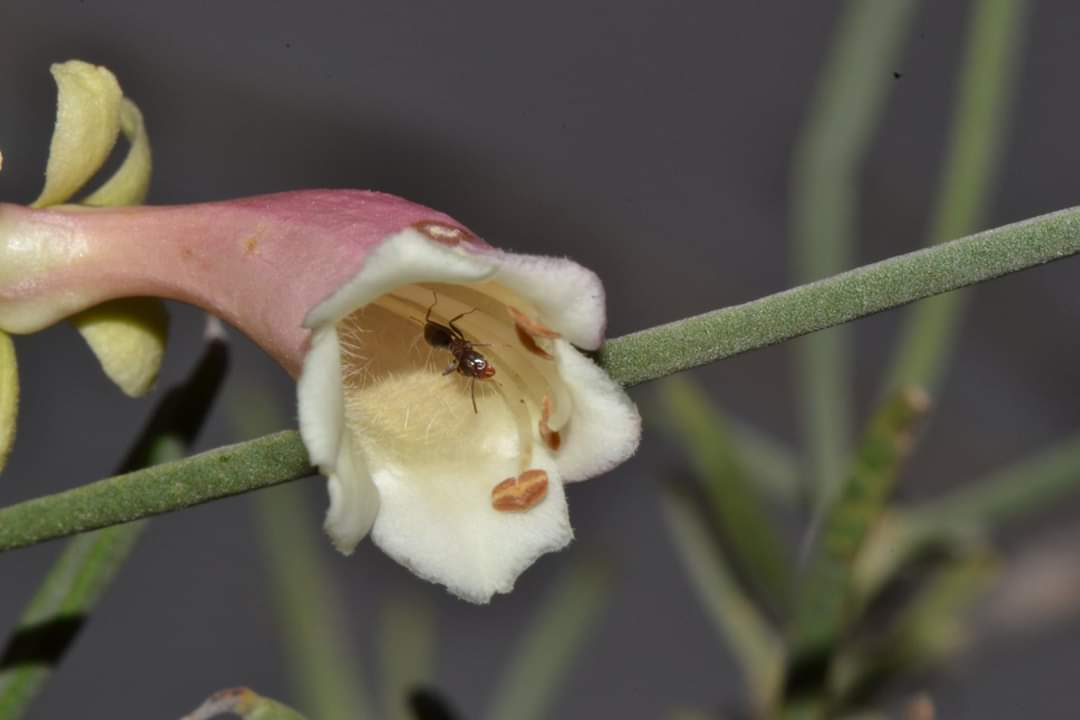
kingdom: Plantae
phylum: Tracheophyta
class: Magnoliopsida
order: Lamiales
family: Scrophulariaceae
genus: Eremophila
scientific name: Eremophila oppositifolia
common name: Mountain-sandalwood
